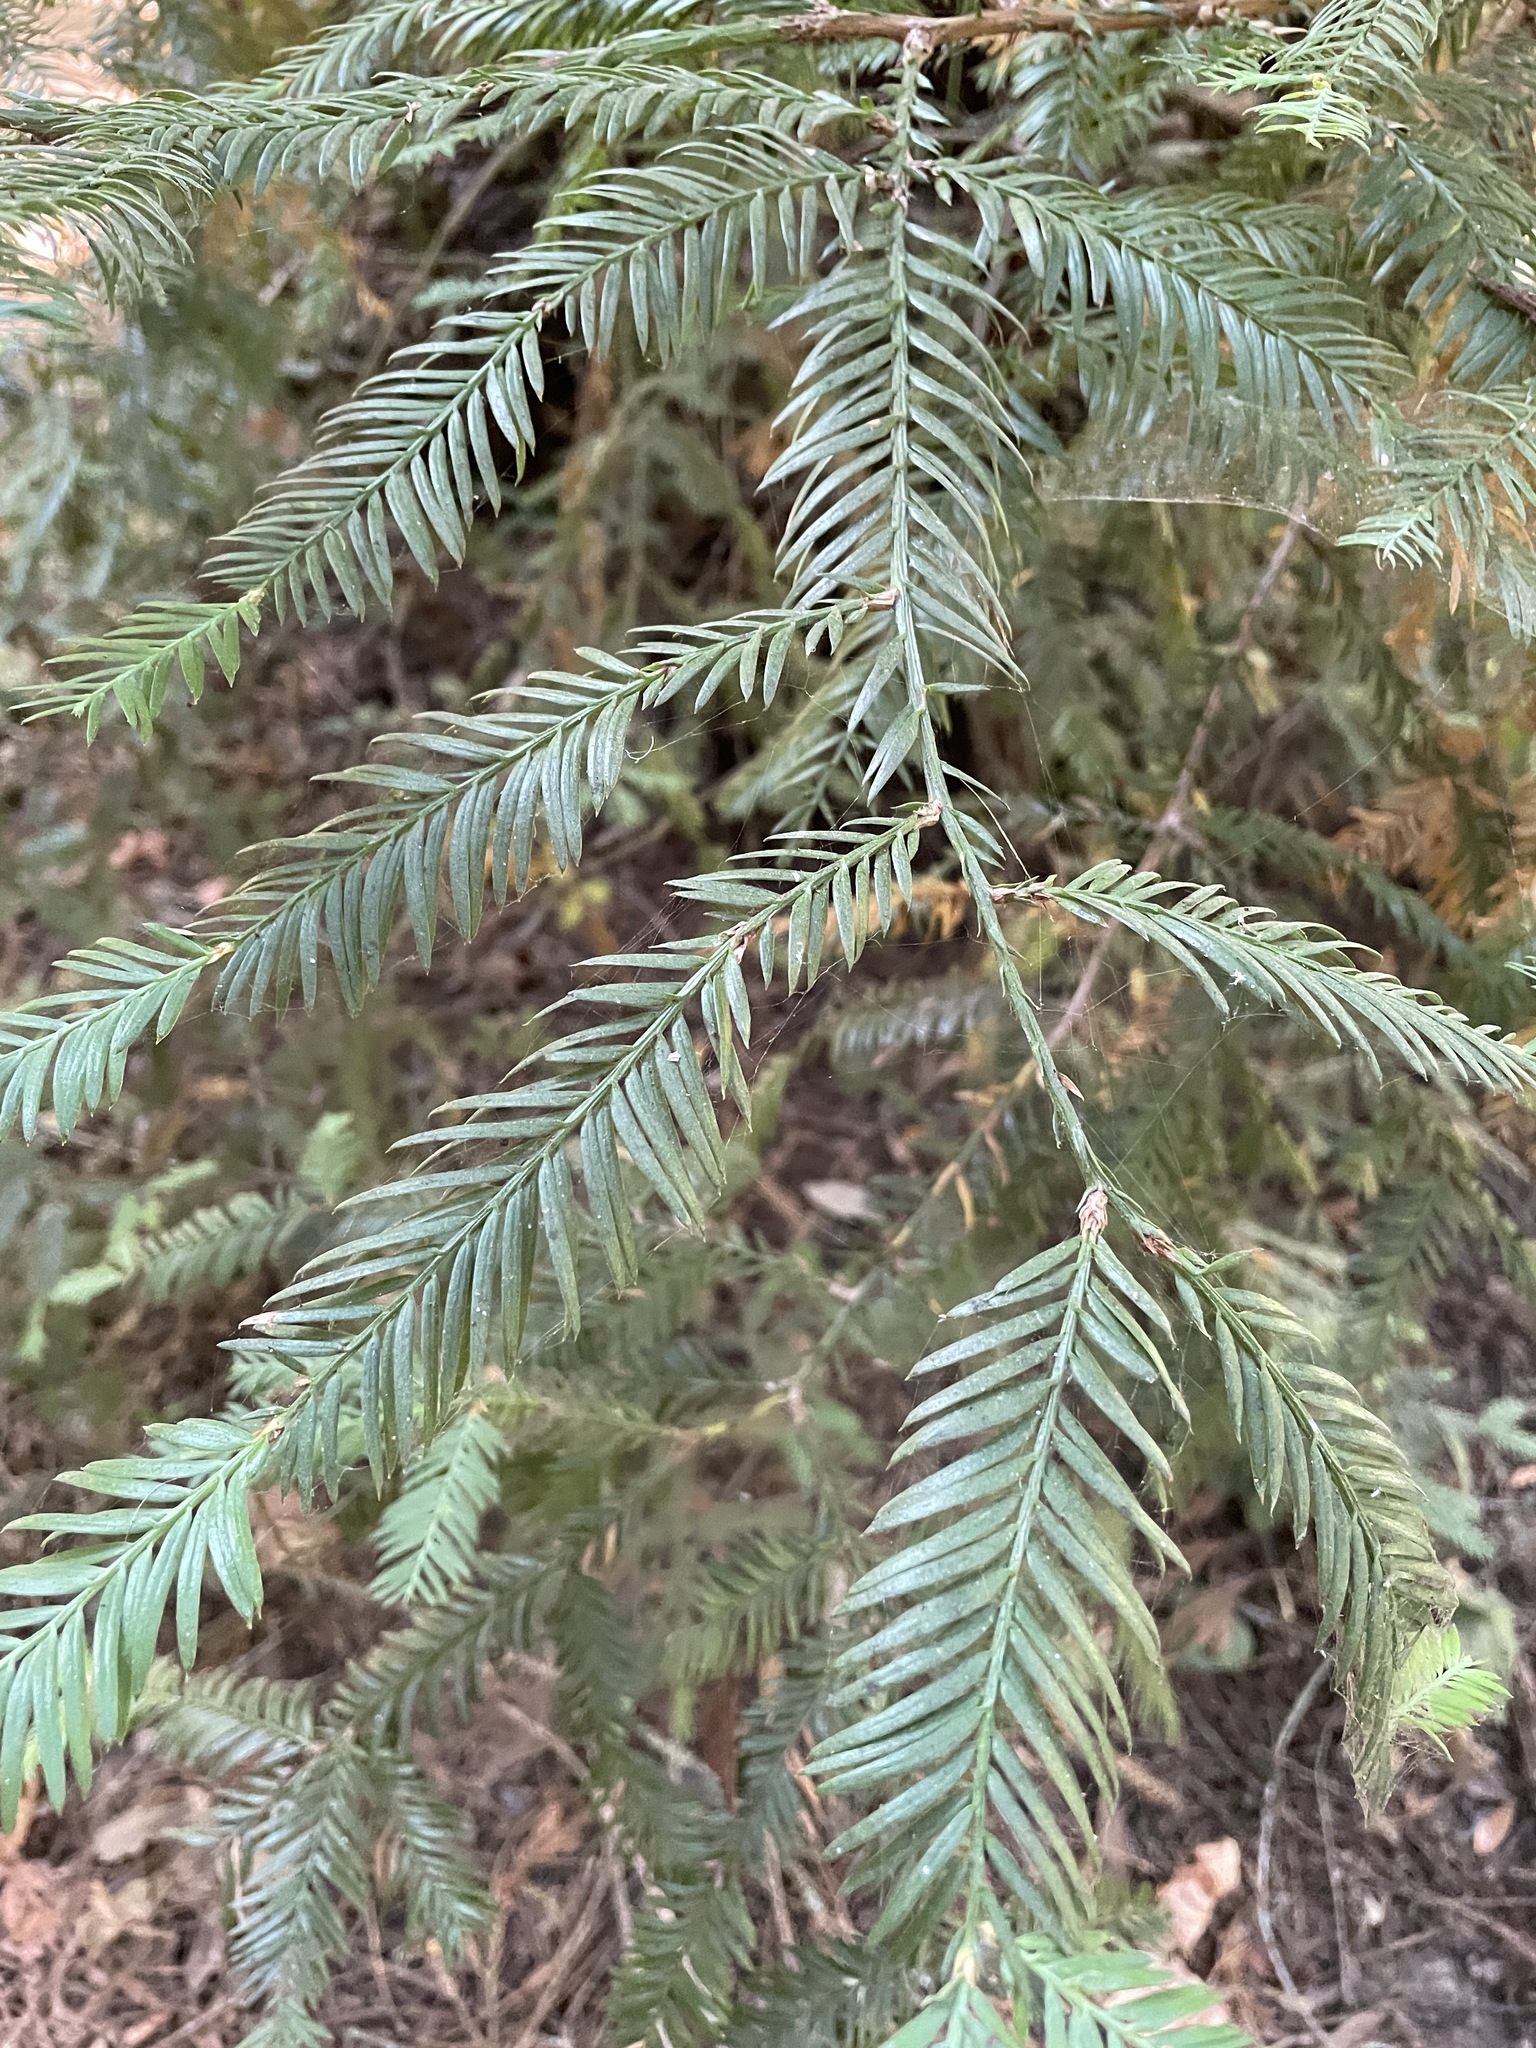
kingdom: Plantae
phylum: Tracheophyta
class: Pinopsida
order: Pinales
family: Cupressaceae
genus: Sequoia
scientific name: Sequoia sempervirens
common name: Coast redwood
